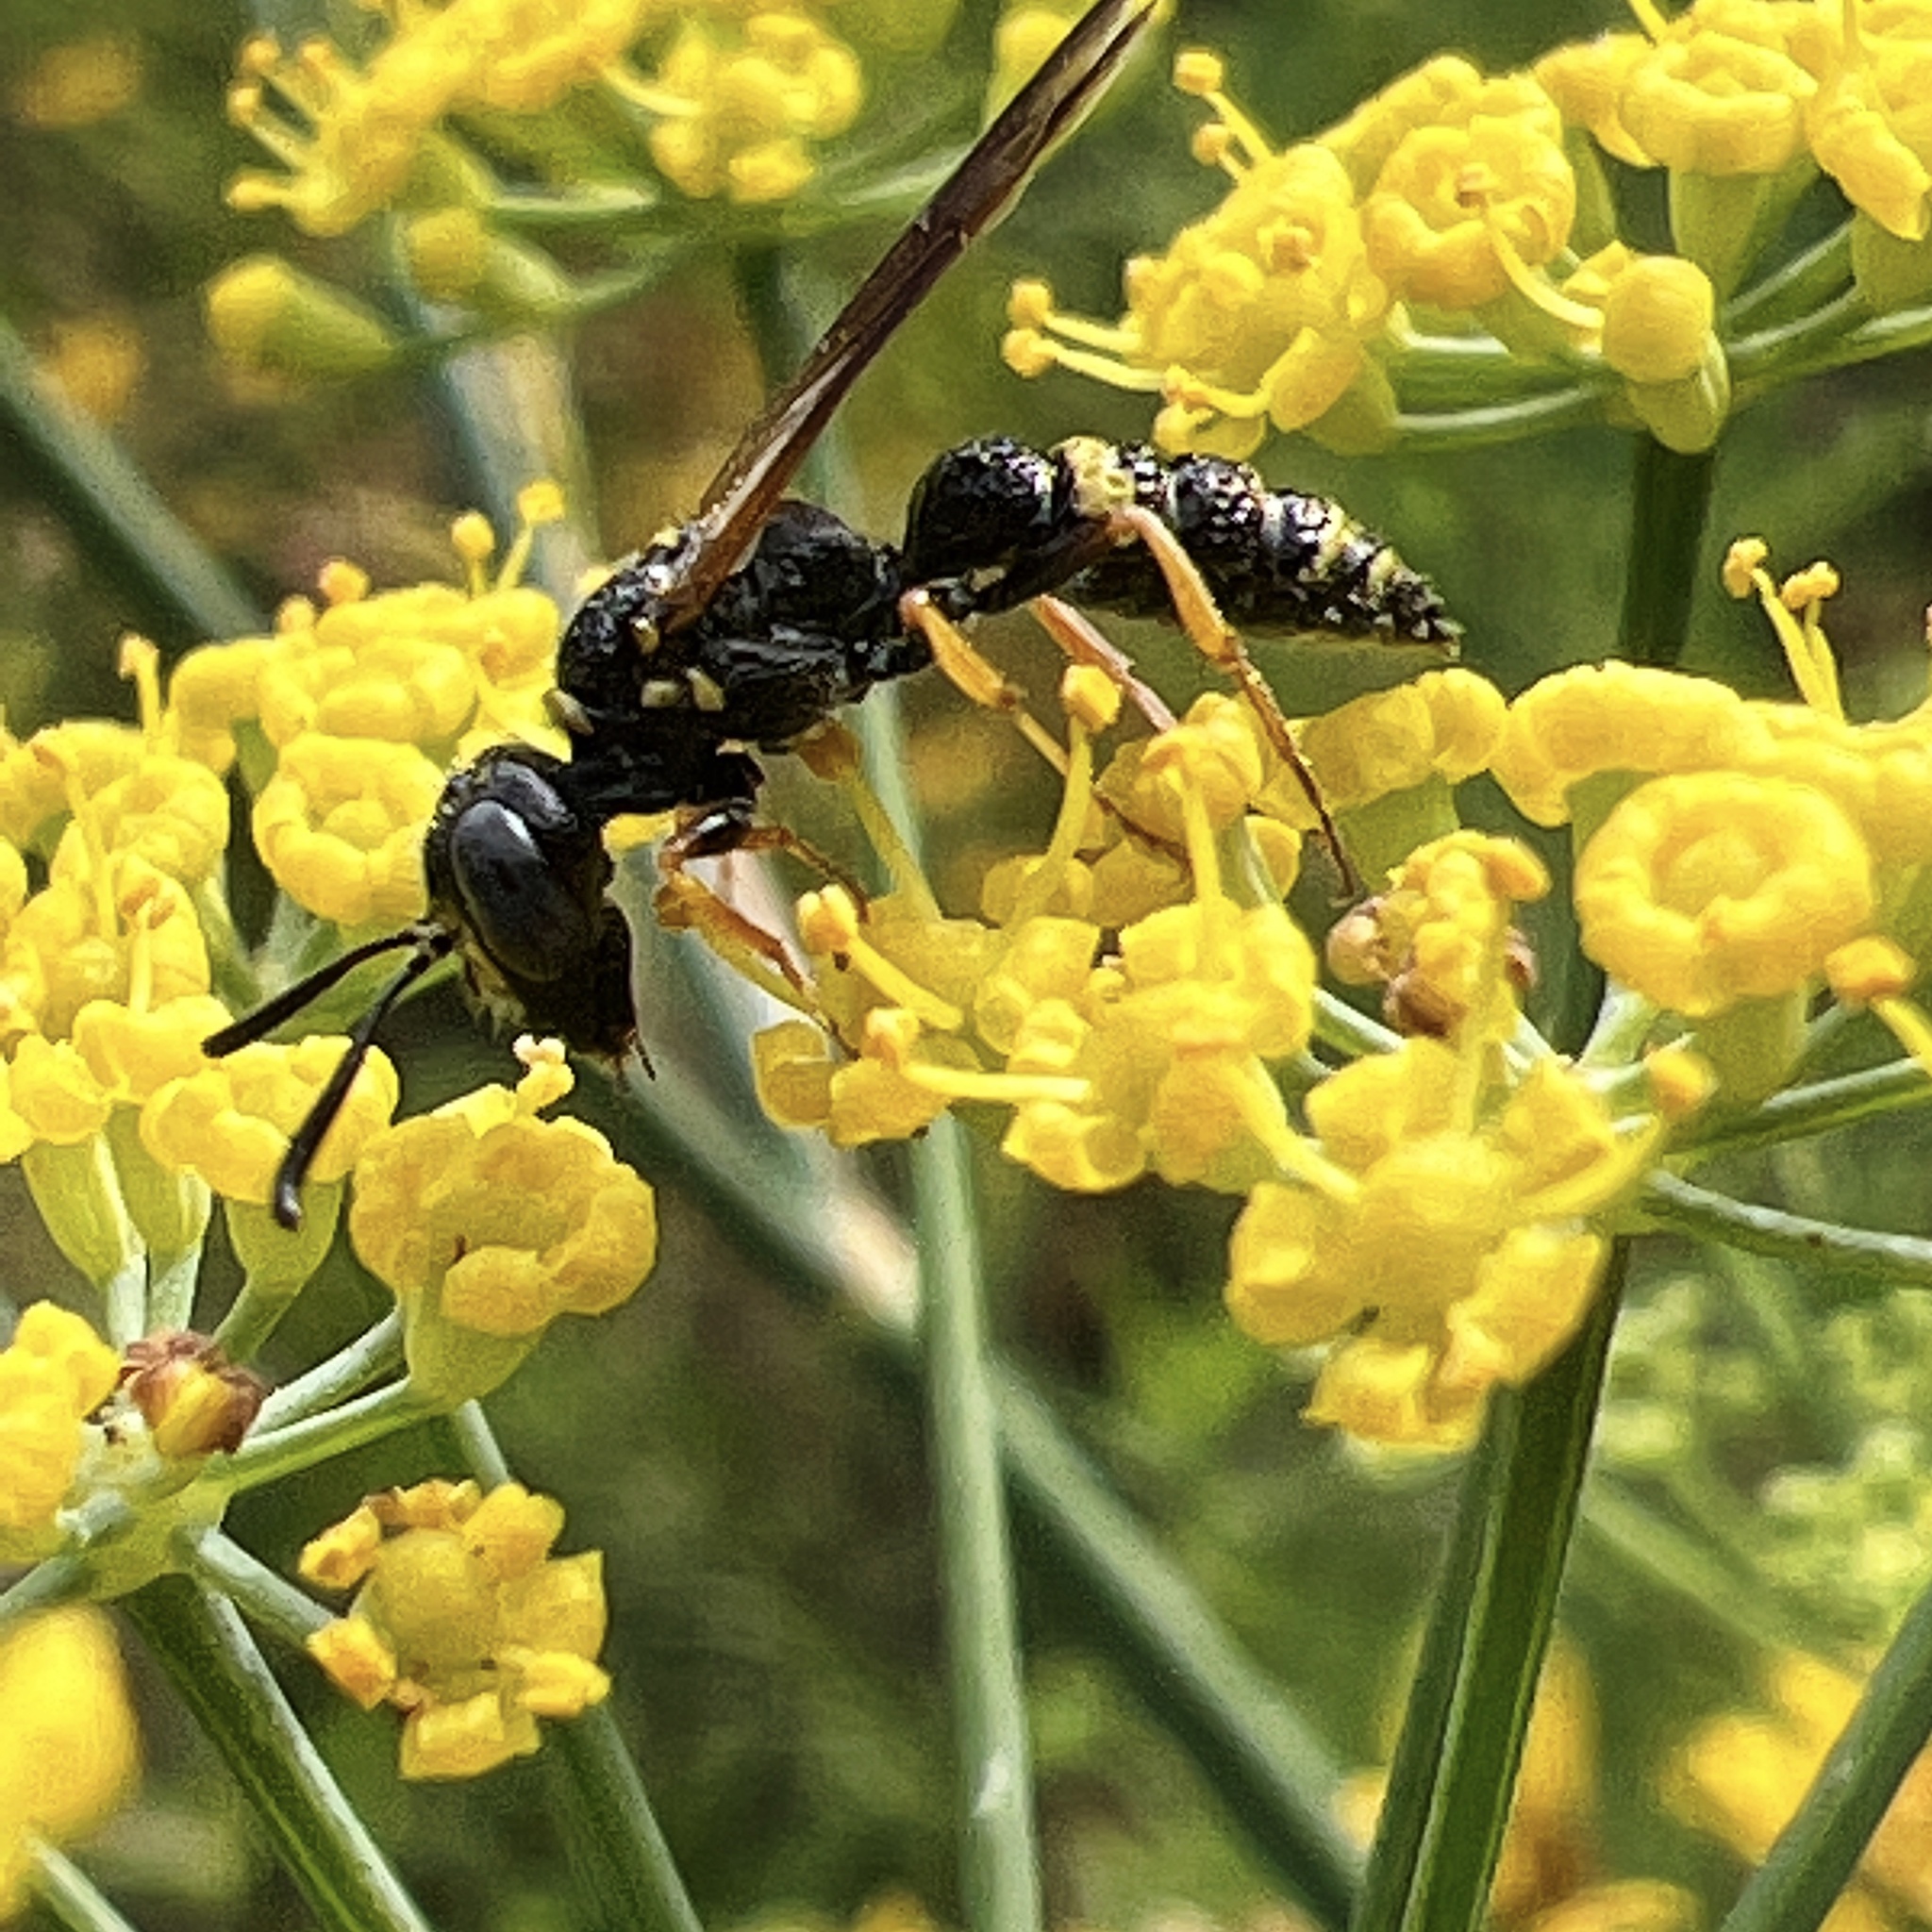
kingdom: Animalia
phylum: Arthropoda
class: Insecta
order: Hymenoptera
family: Crabronidae
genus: Philanthus
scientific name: Philanthus gibbosus
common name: Humped beewolf
